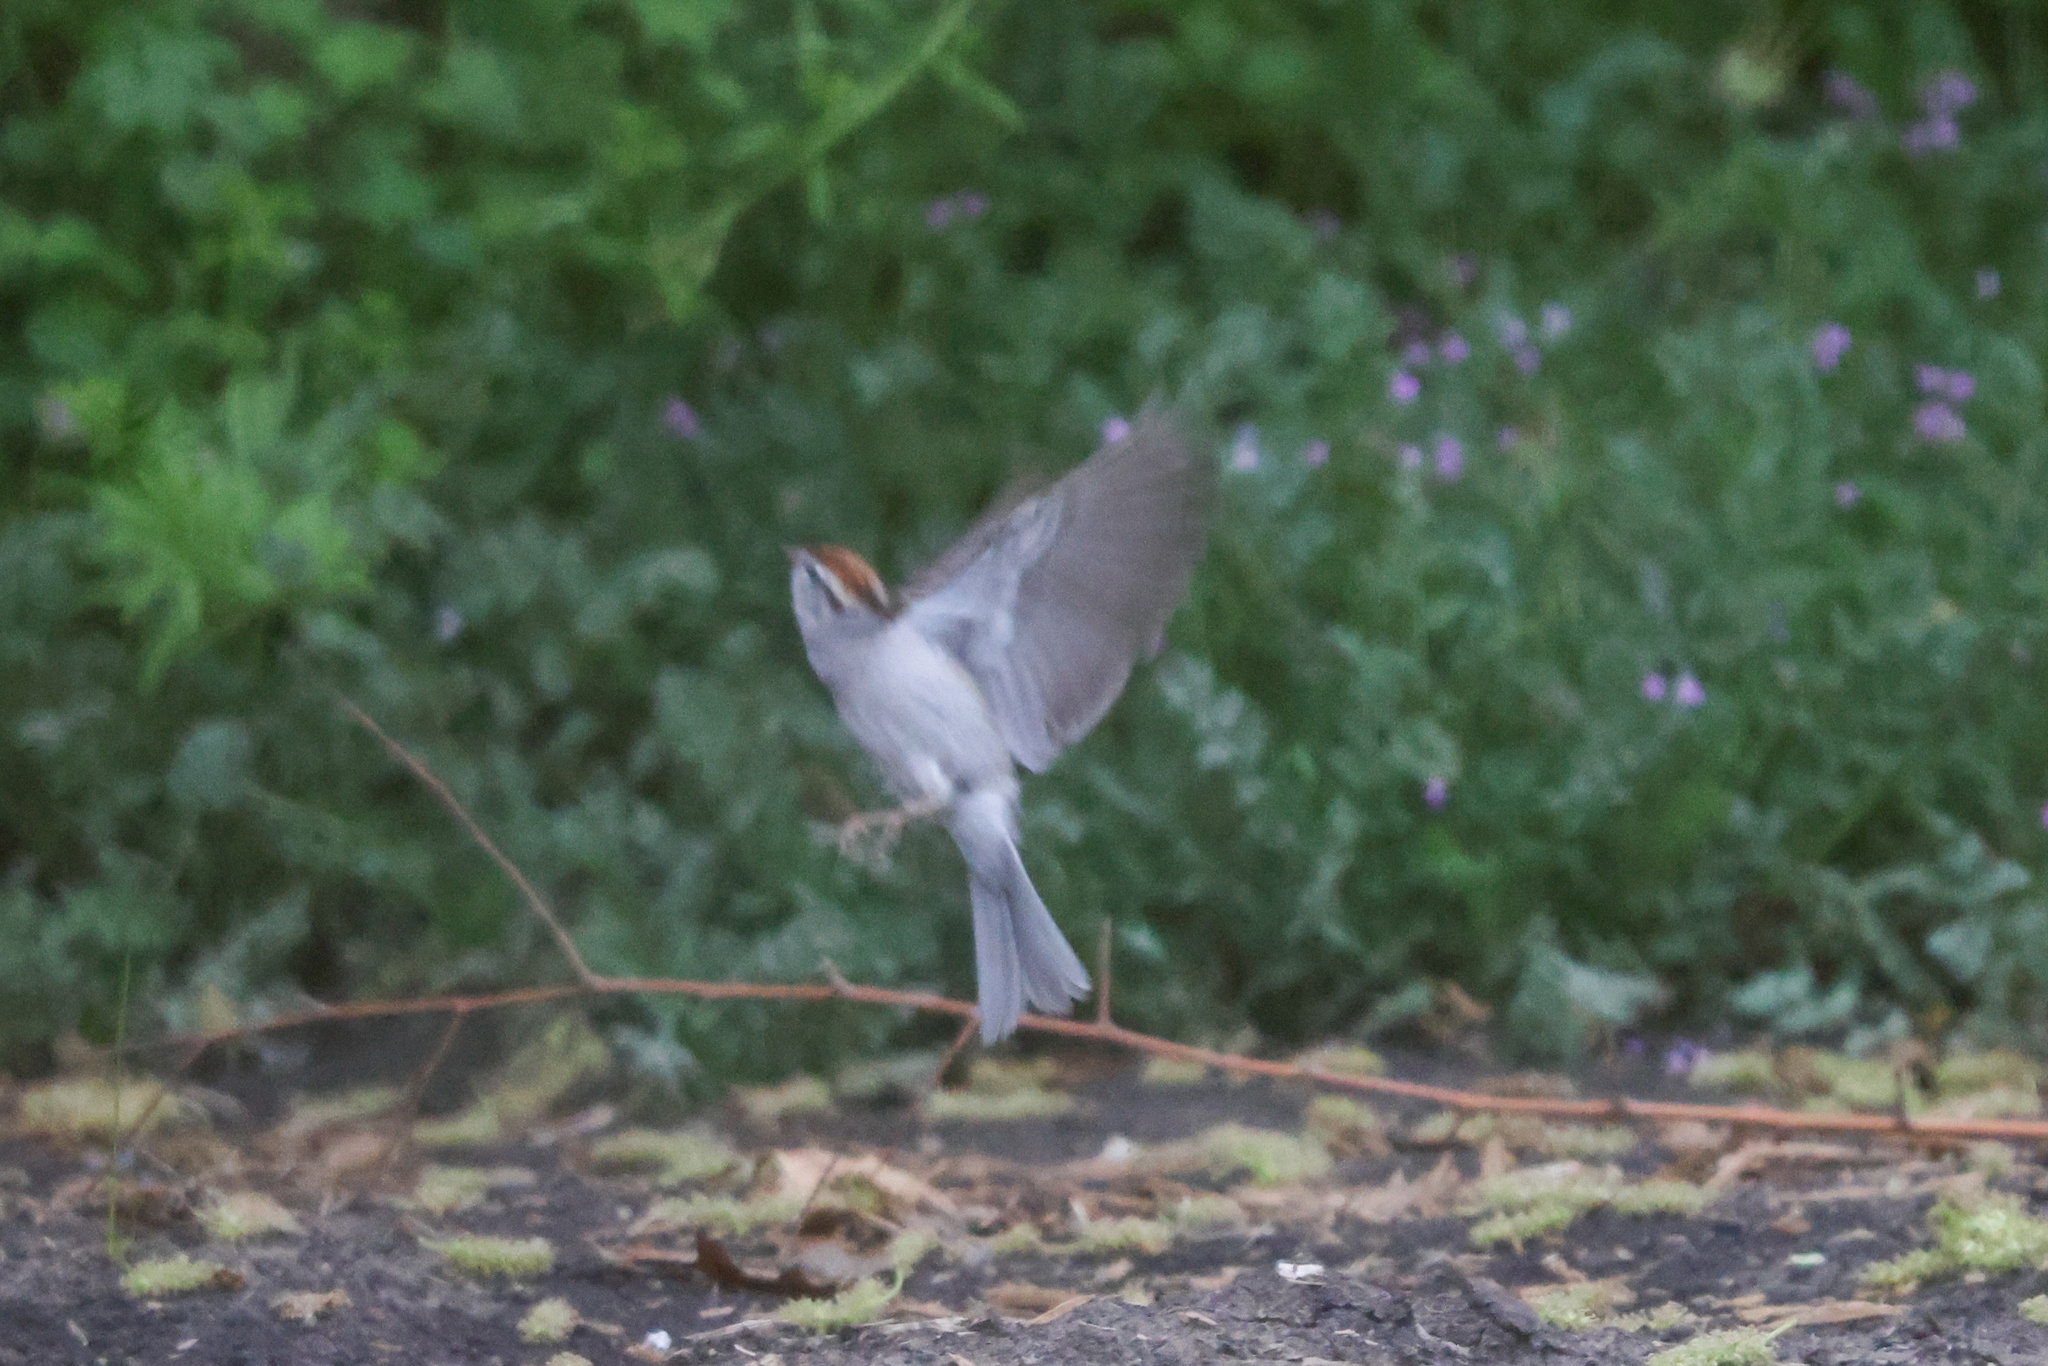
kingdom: Animalia
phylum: Chordata
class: Aves
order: Passeriformes
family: Passerellidae
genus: Spizella
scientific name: Spizella passerina
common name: Chipping sparrow
